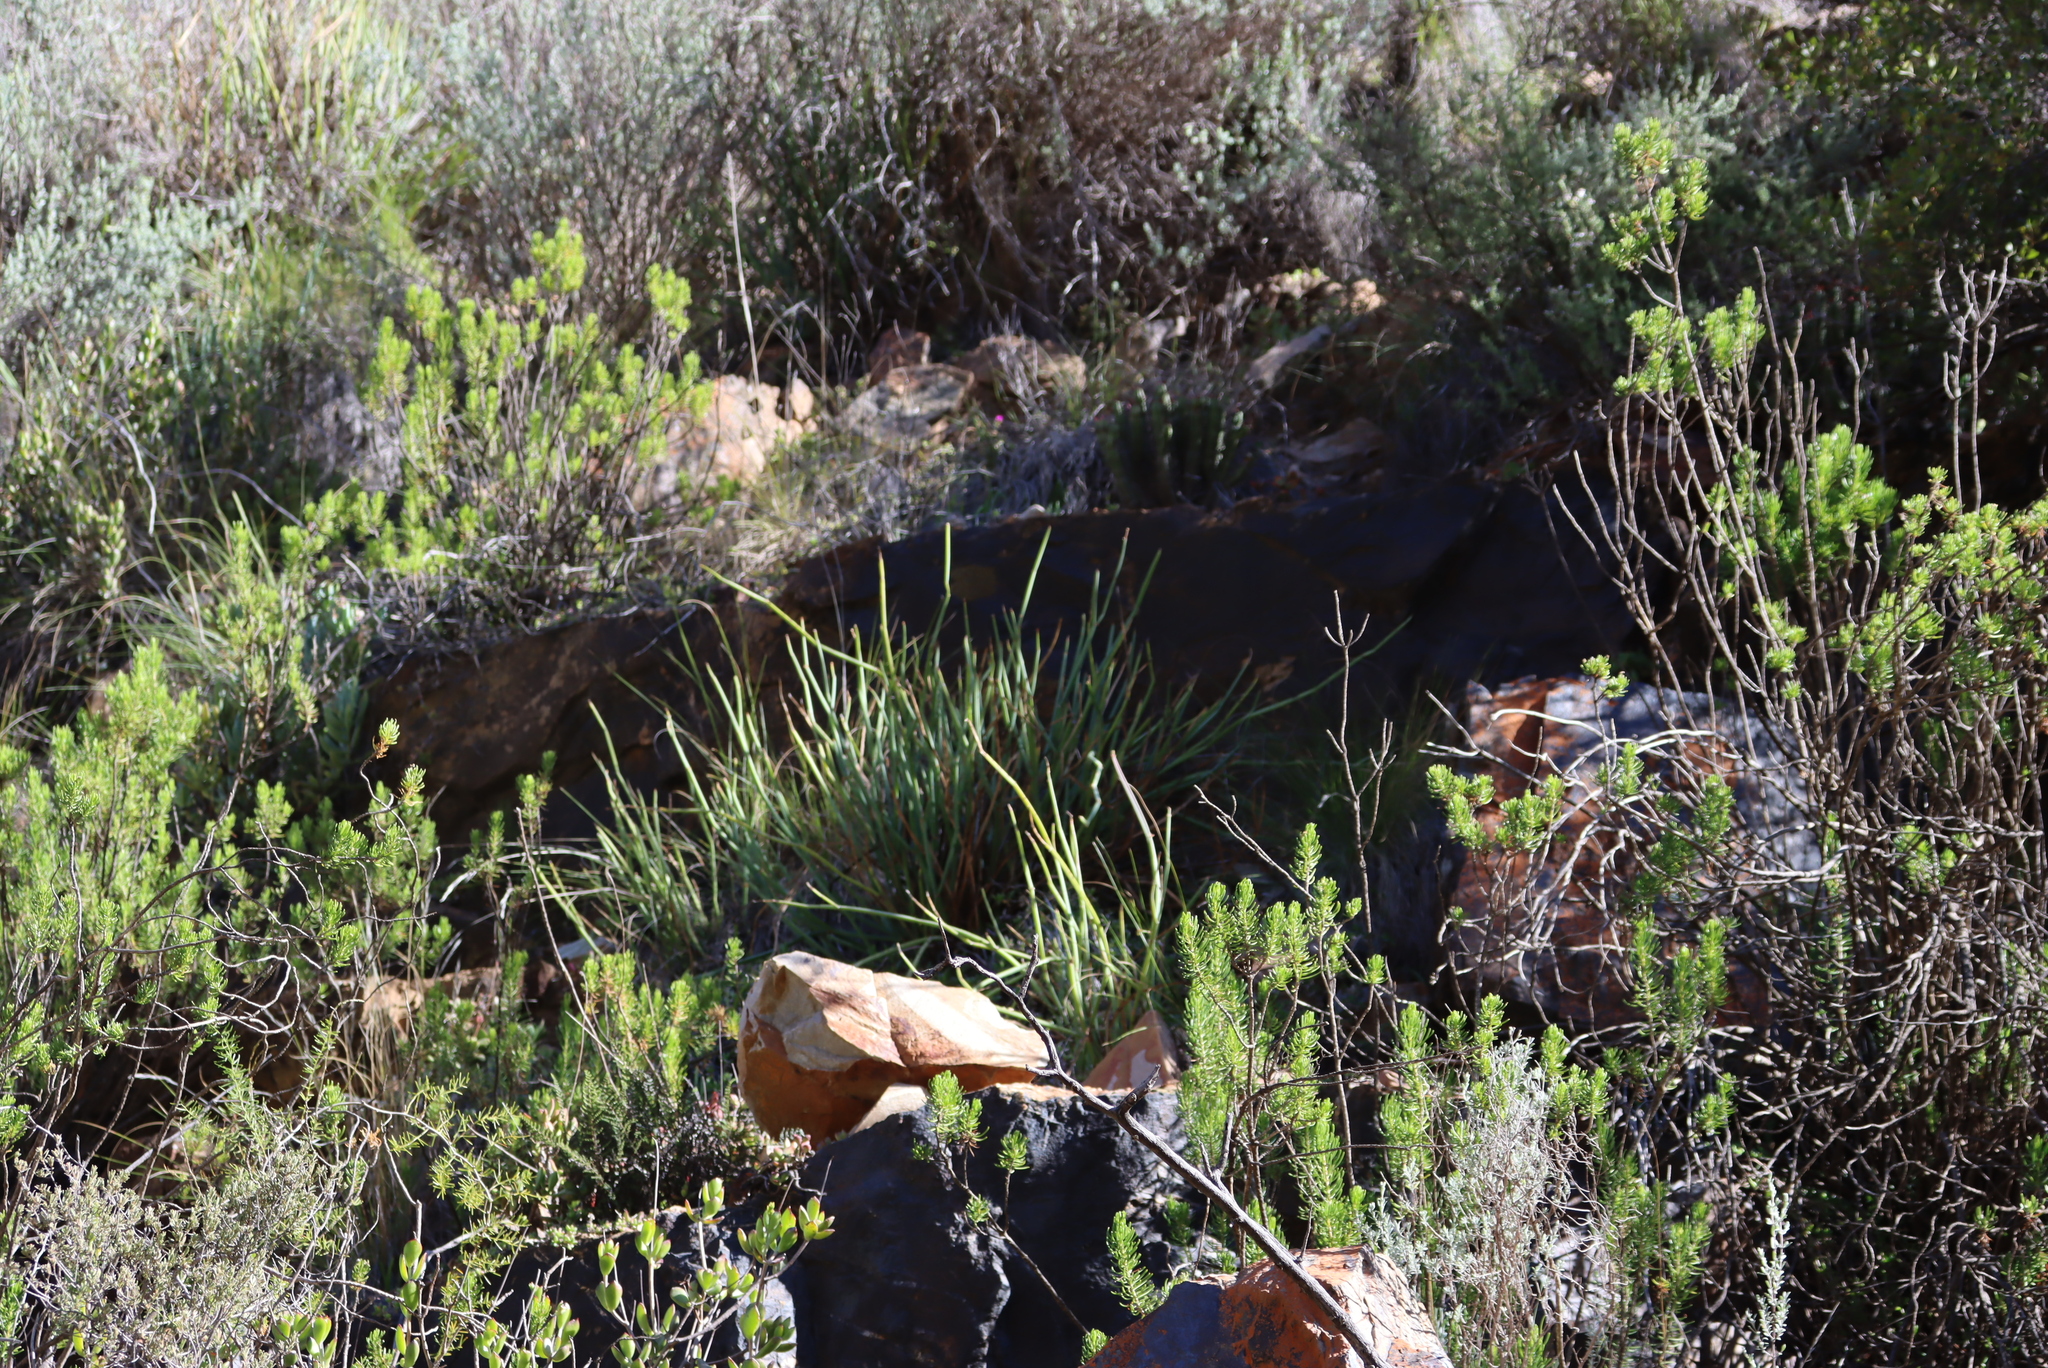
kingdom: Plantae
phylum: Tracheophyta
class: Magnoliopsida
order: Geraniales
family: Geraniaceae
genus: Pelargonium
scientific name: Pelargonium tetragonum
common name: Square-stack crane's-bill
